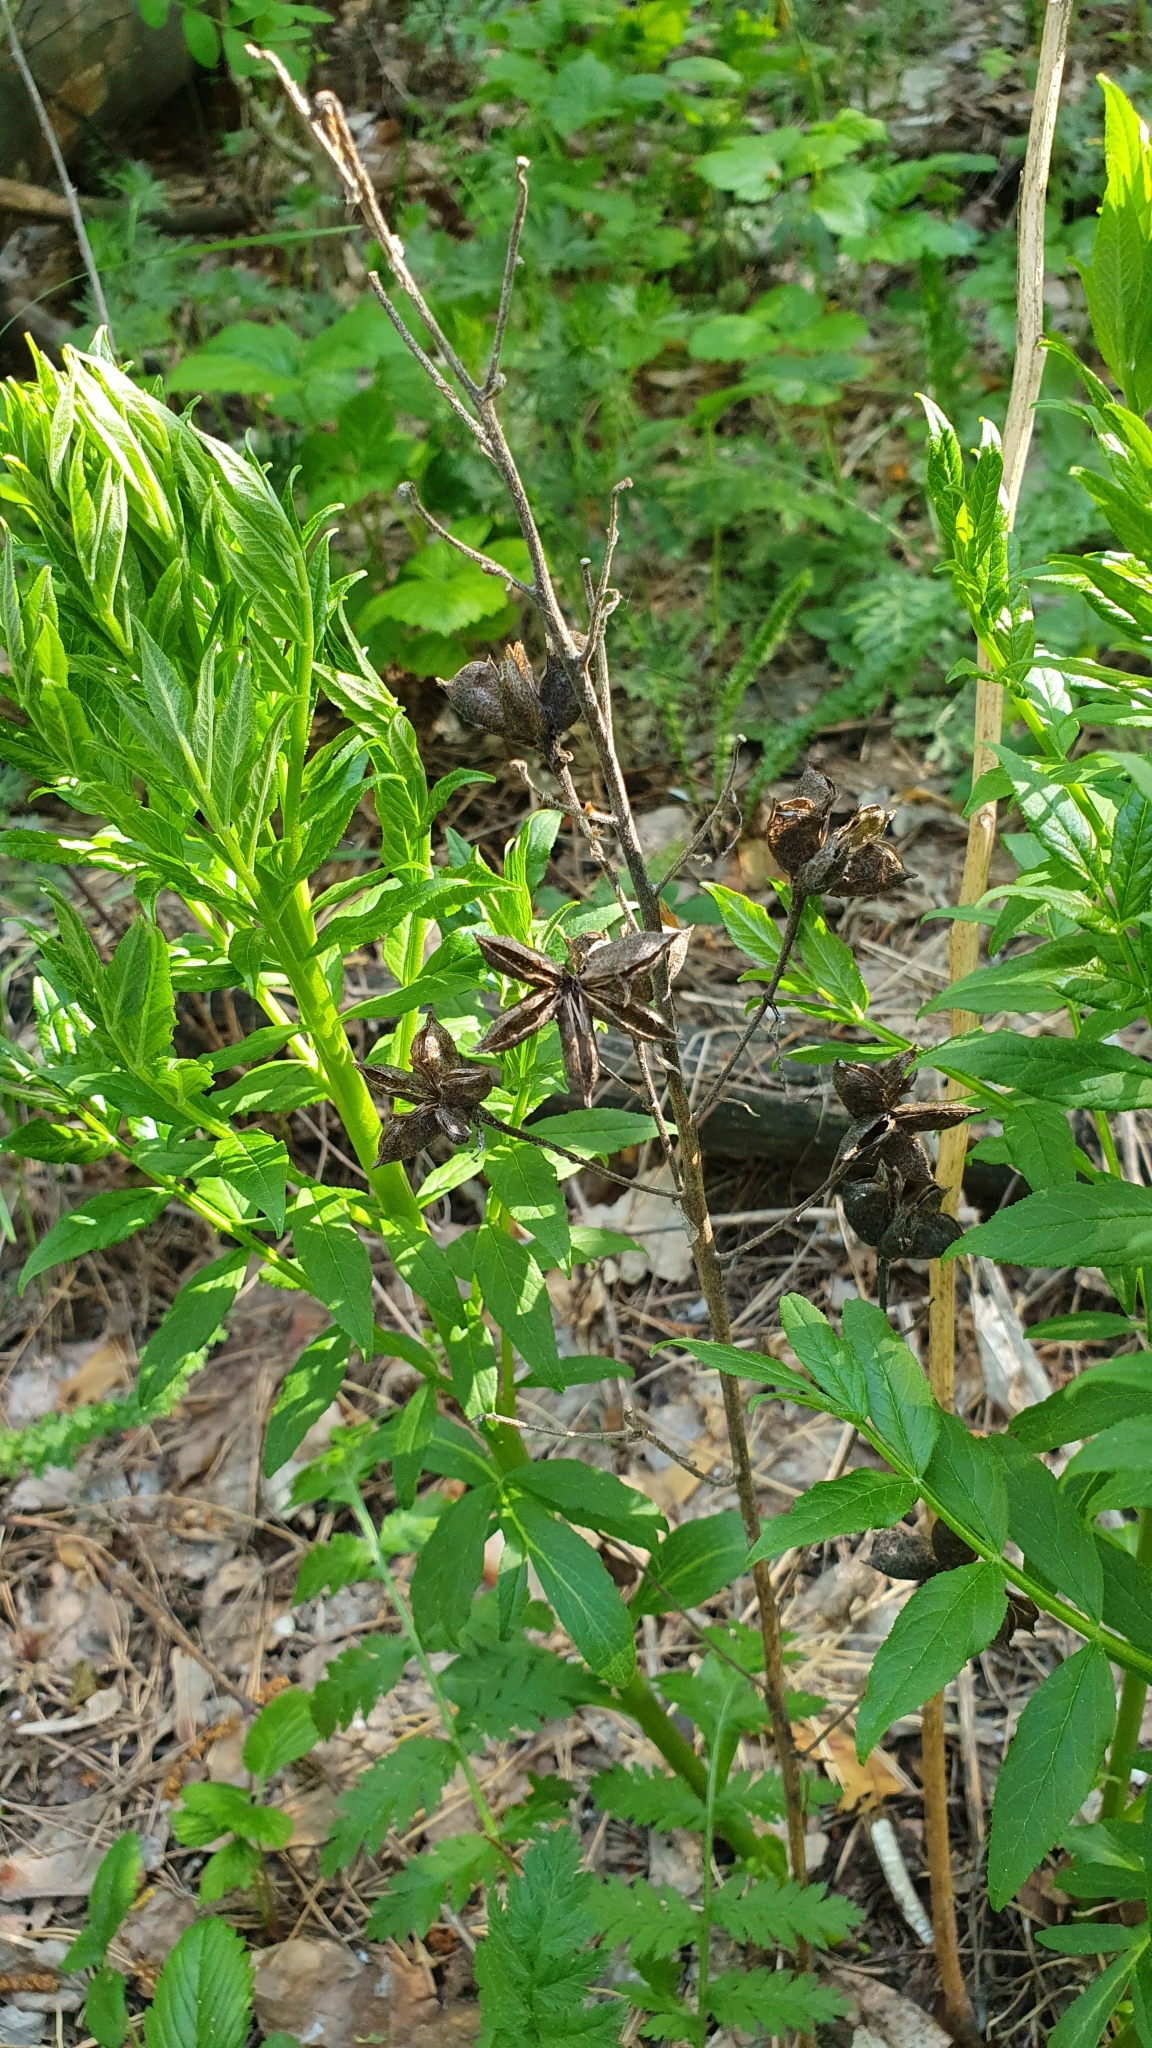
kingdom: Plantae
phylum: Tracheophyta
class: Magnoliopsida
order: Sapindales
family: Rutaceae
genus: Dictamnus
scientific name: Dictamnus albus
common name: Gasplant
